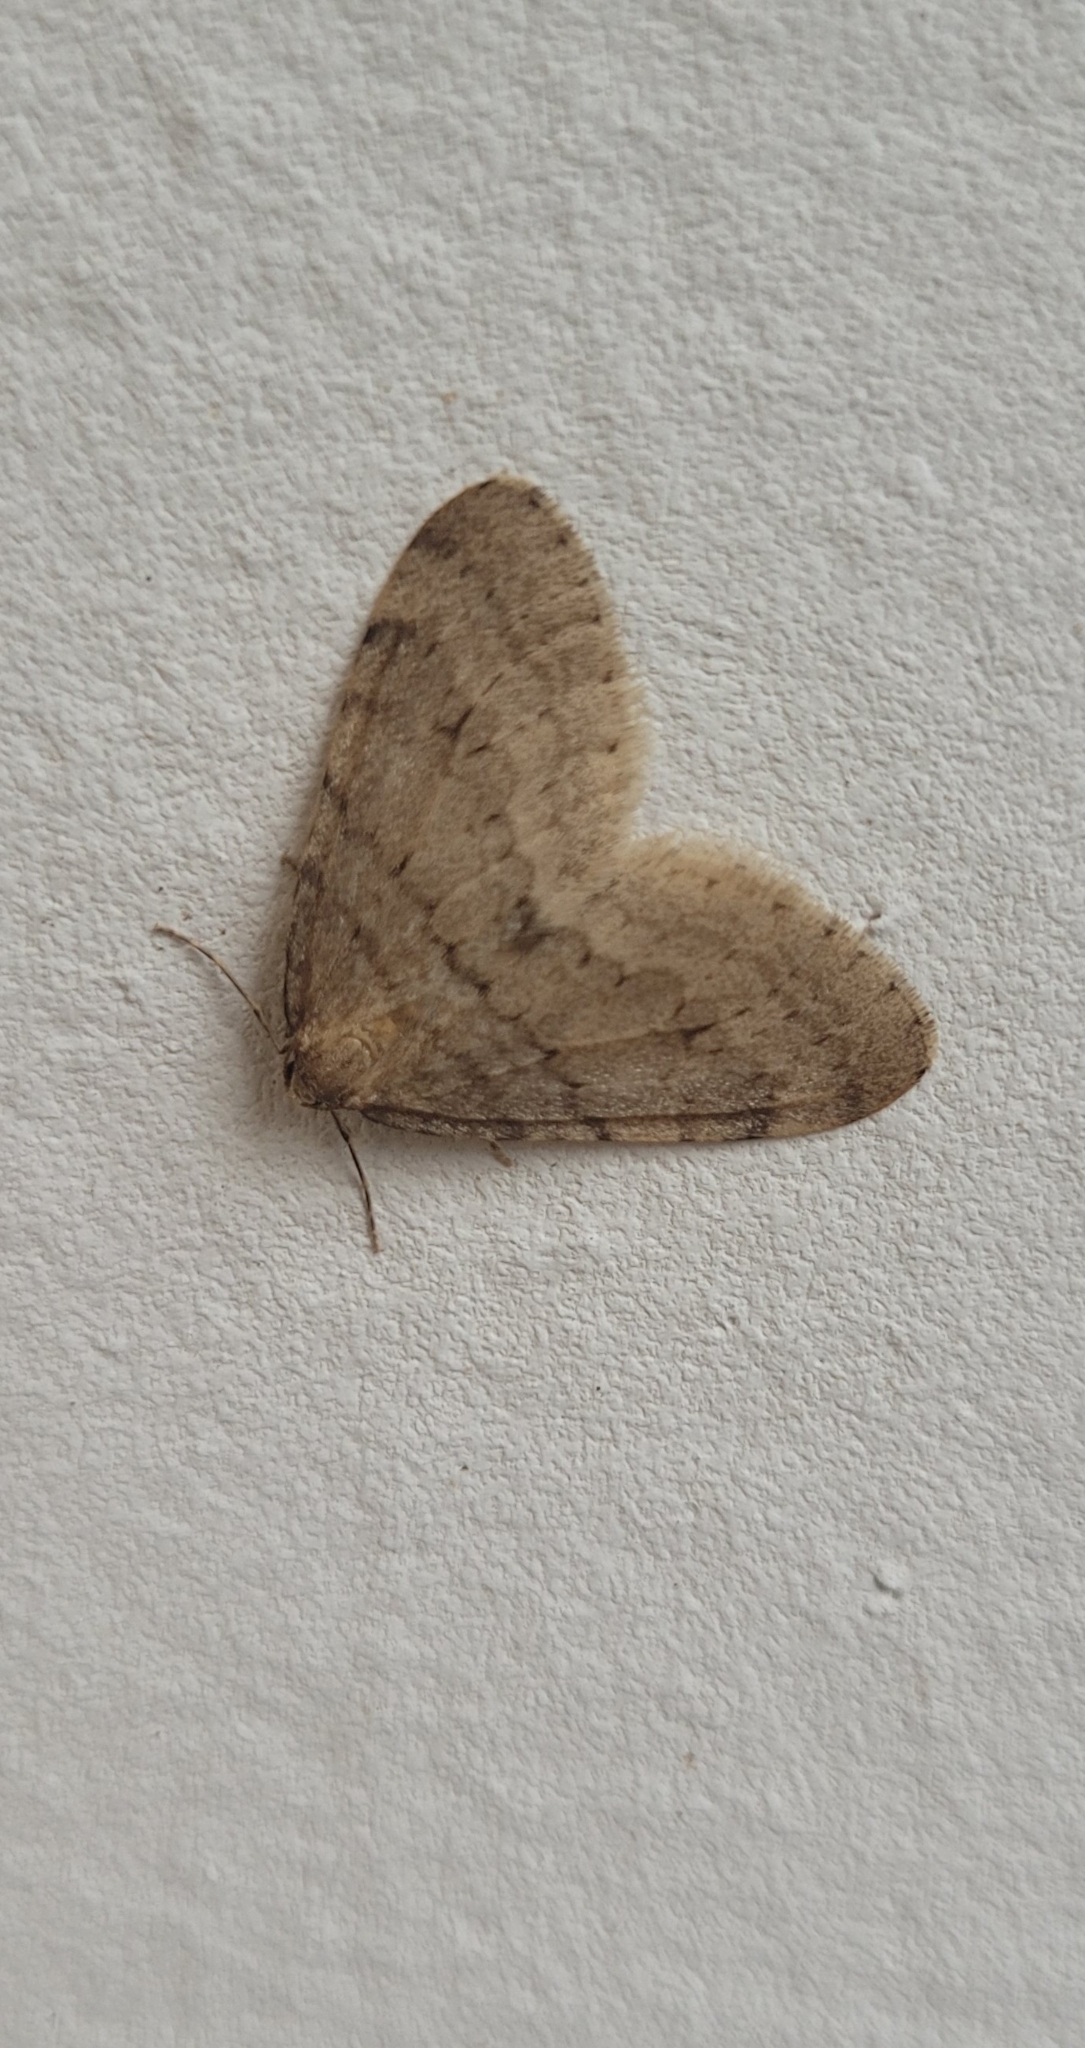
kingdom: Animalia
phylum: Arthropoda
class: Insecta
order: Lepidoptera
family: Geometridae
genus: Operophtera
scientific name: Operophtera fagata
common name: Northern winter moth
